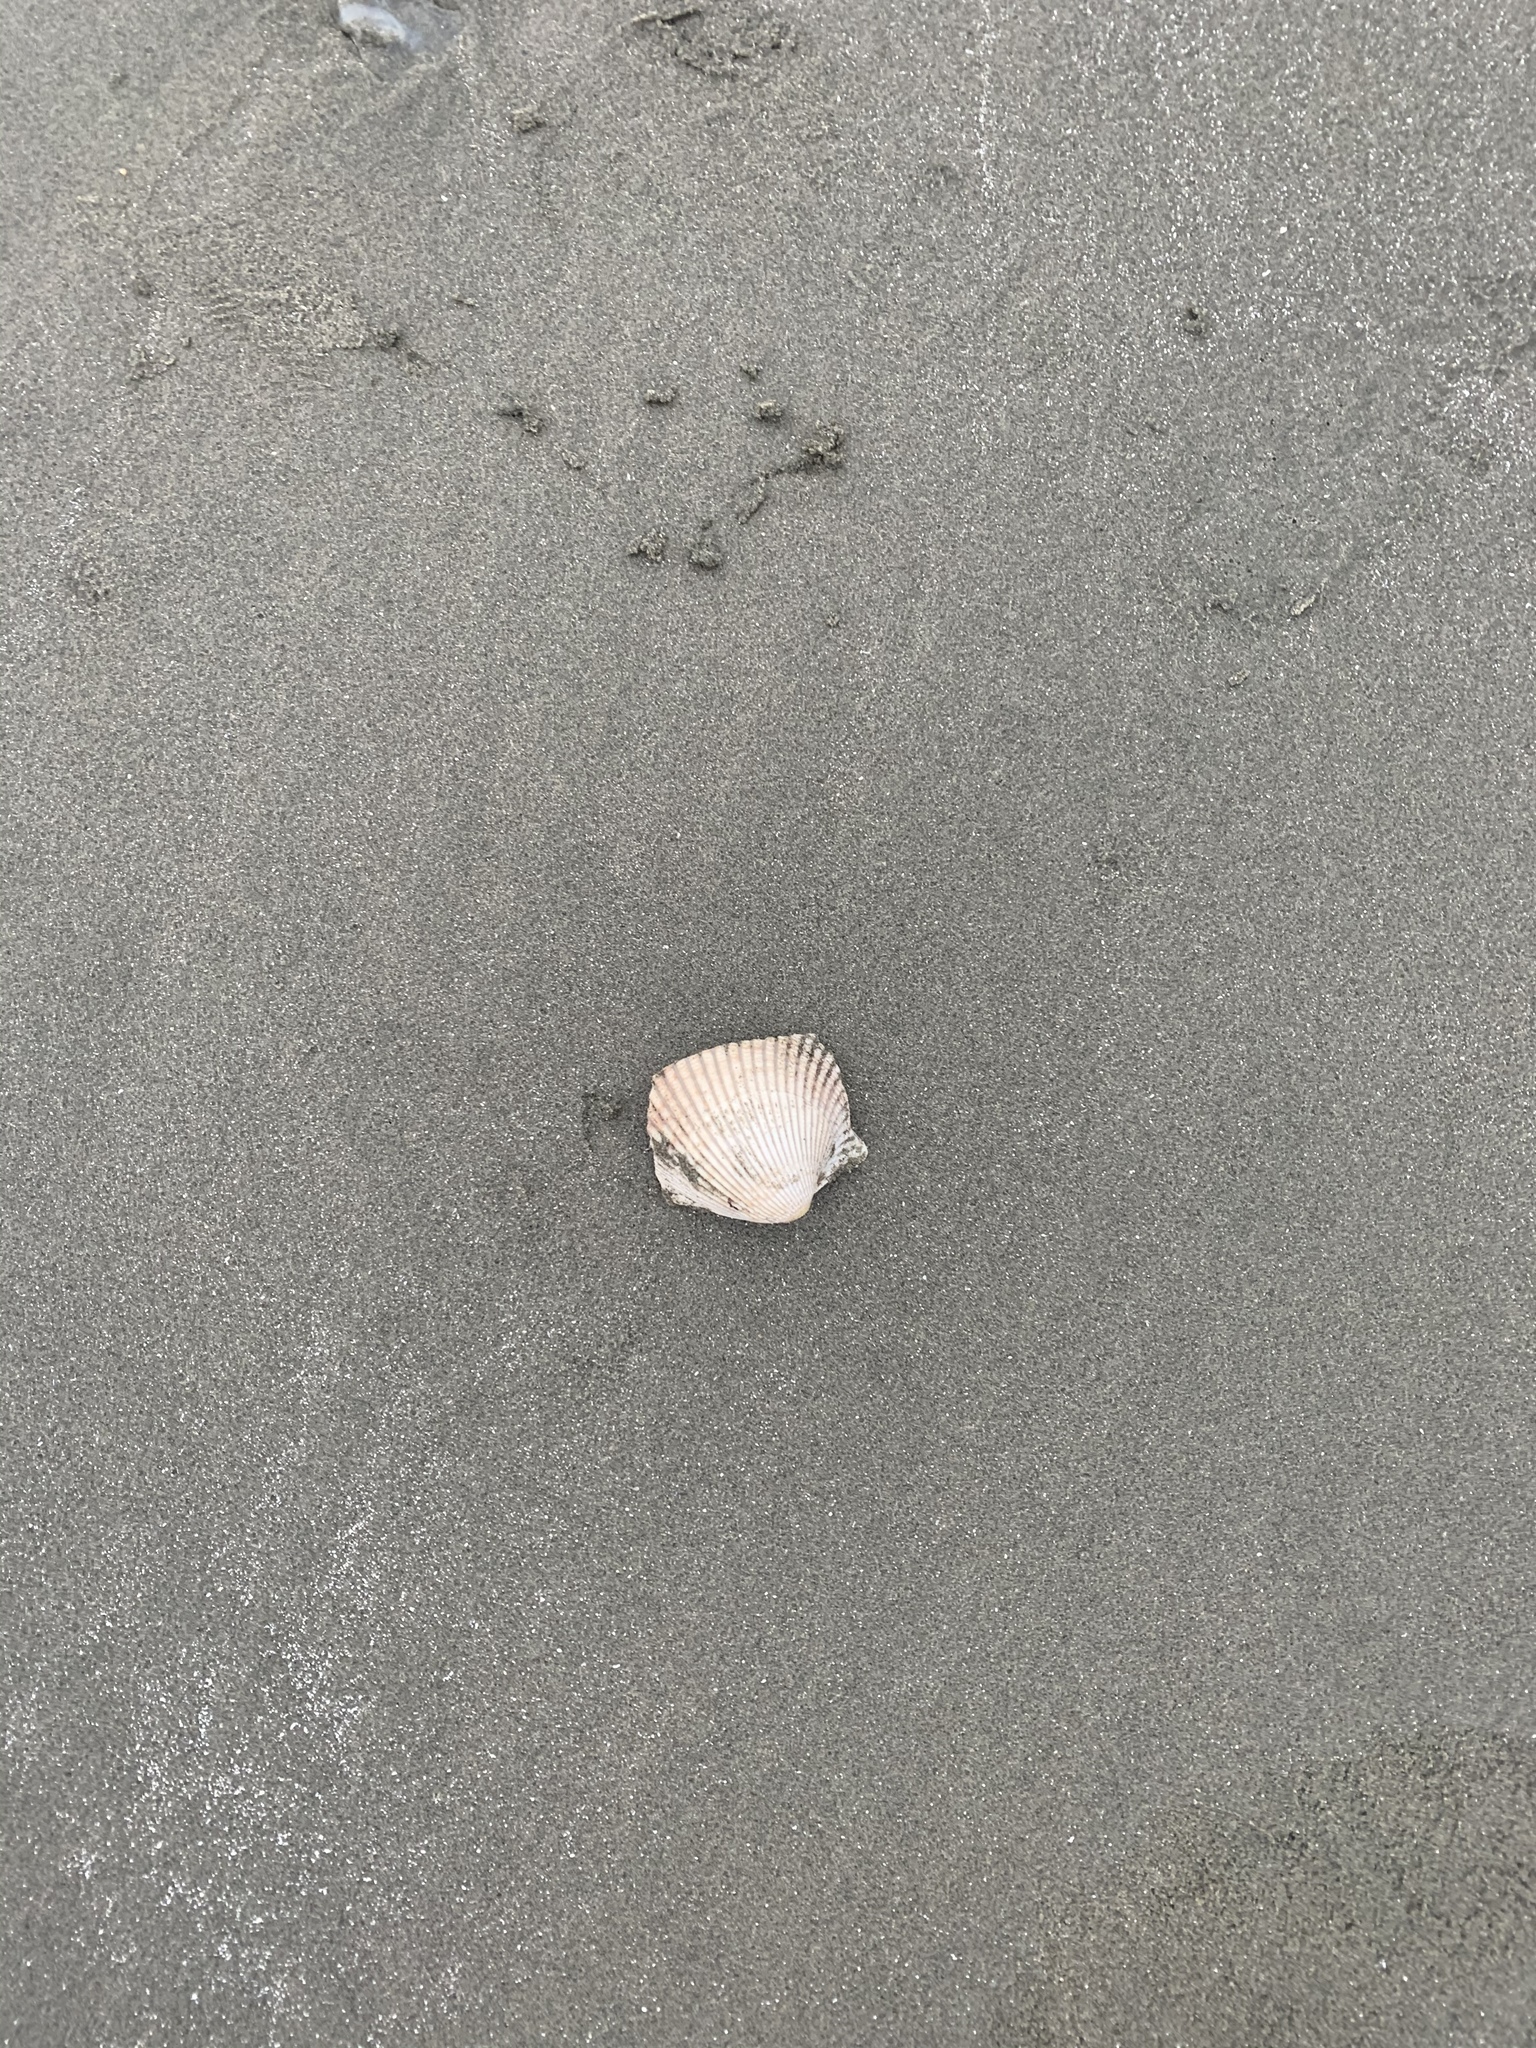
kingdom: Animalia
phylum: Mollusca
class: Bivalvia
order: Cardiida
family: Cardiidae
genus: Clinocardium
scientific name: Clinocardium nuttallii
